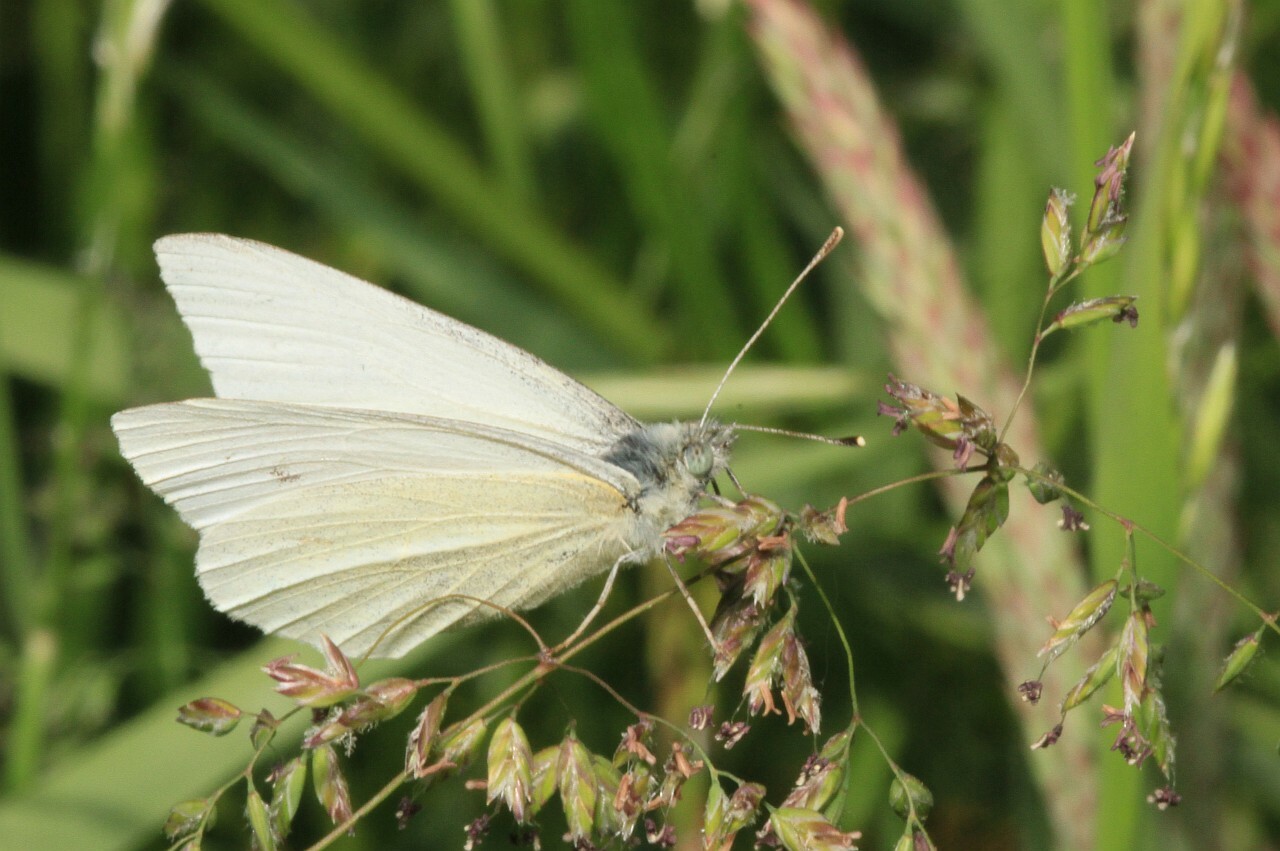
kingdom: Animalia
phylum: Arthropoda
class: Insecta
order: Lepidoptera
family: Pieridae
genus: Pieris
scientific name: Pieris rapae
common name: Small white
